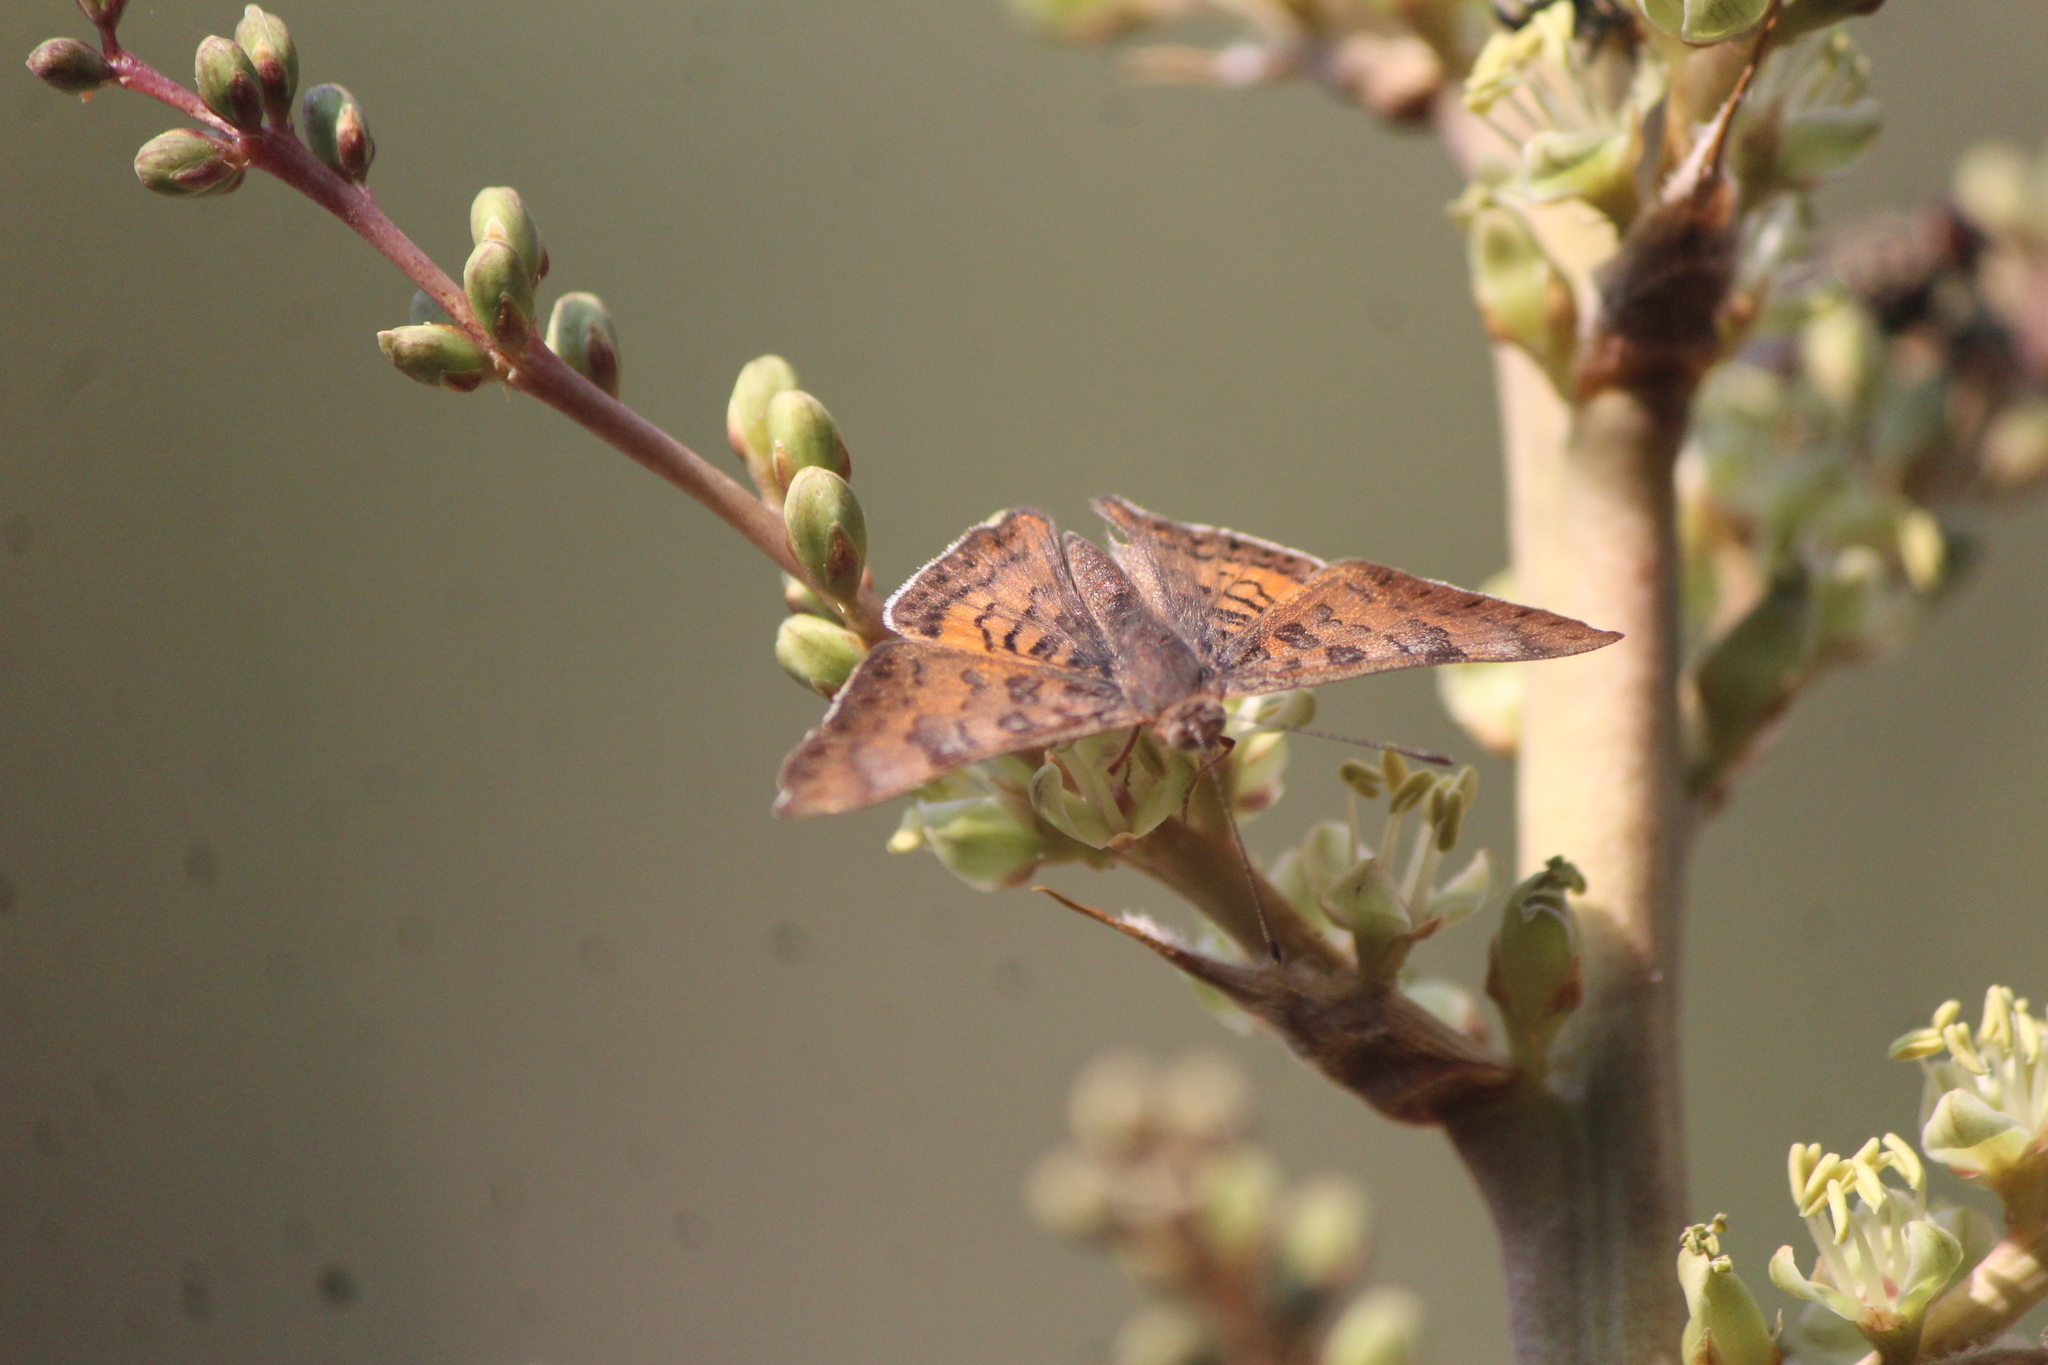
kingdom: Animalia
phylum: Arthropoda
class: Insecta
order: Lepidoptera
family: Riodinidae
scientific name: Riodinidae
